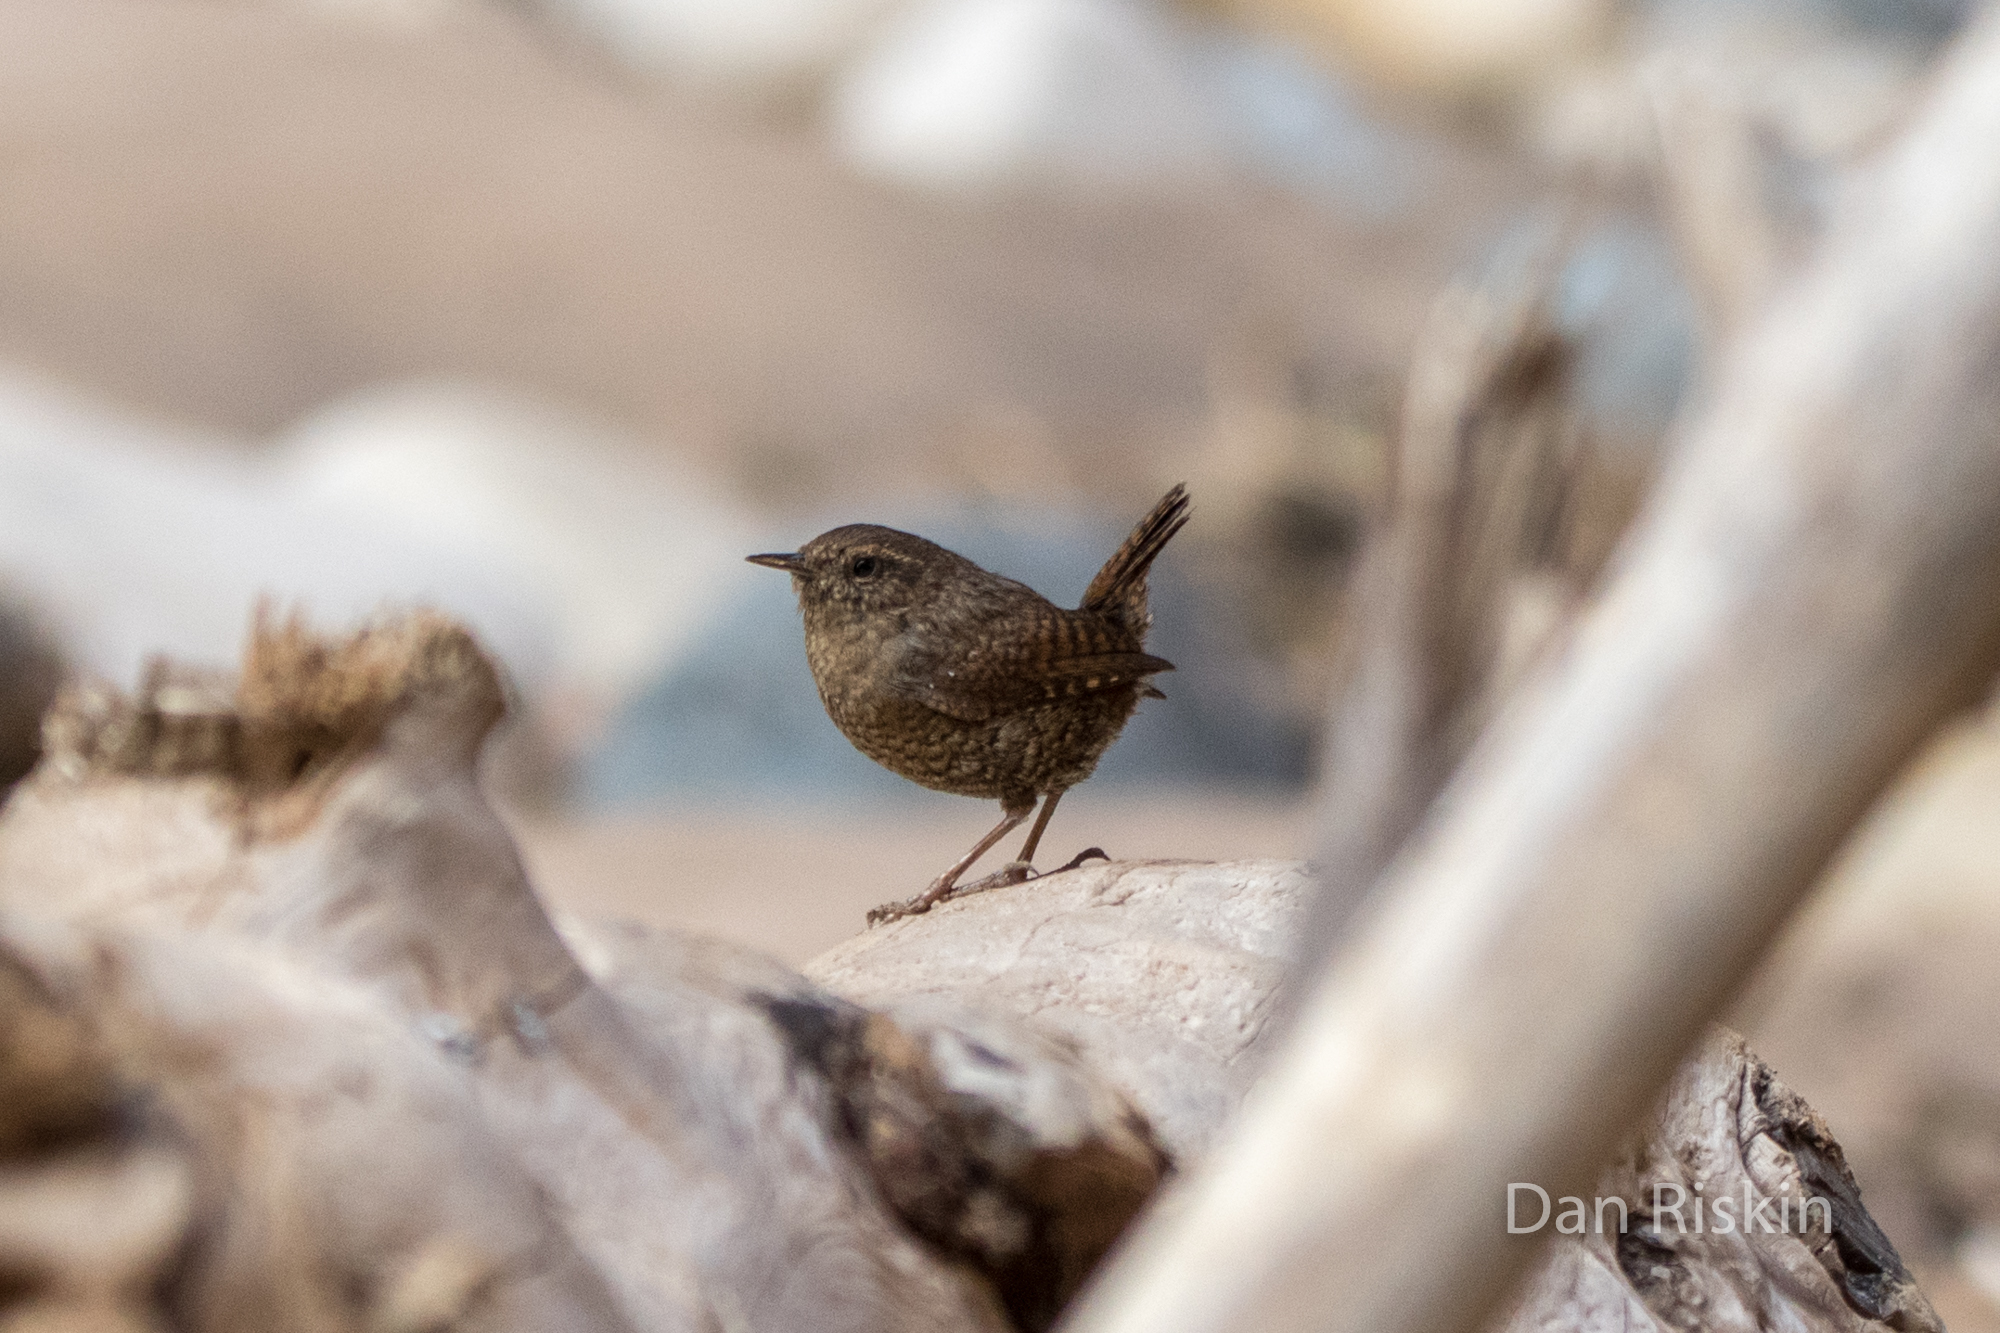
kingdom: Animalia
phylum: Chordata
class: Aves
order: Passeriformes
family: Troglodytidae
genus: Troglodytes
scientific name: Troglodytes pacificus
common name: Pacific wren
